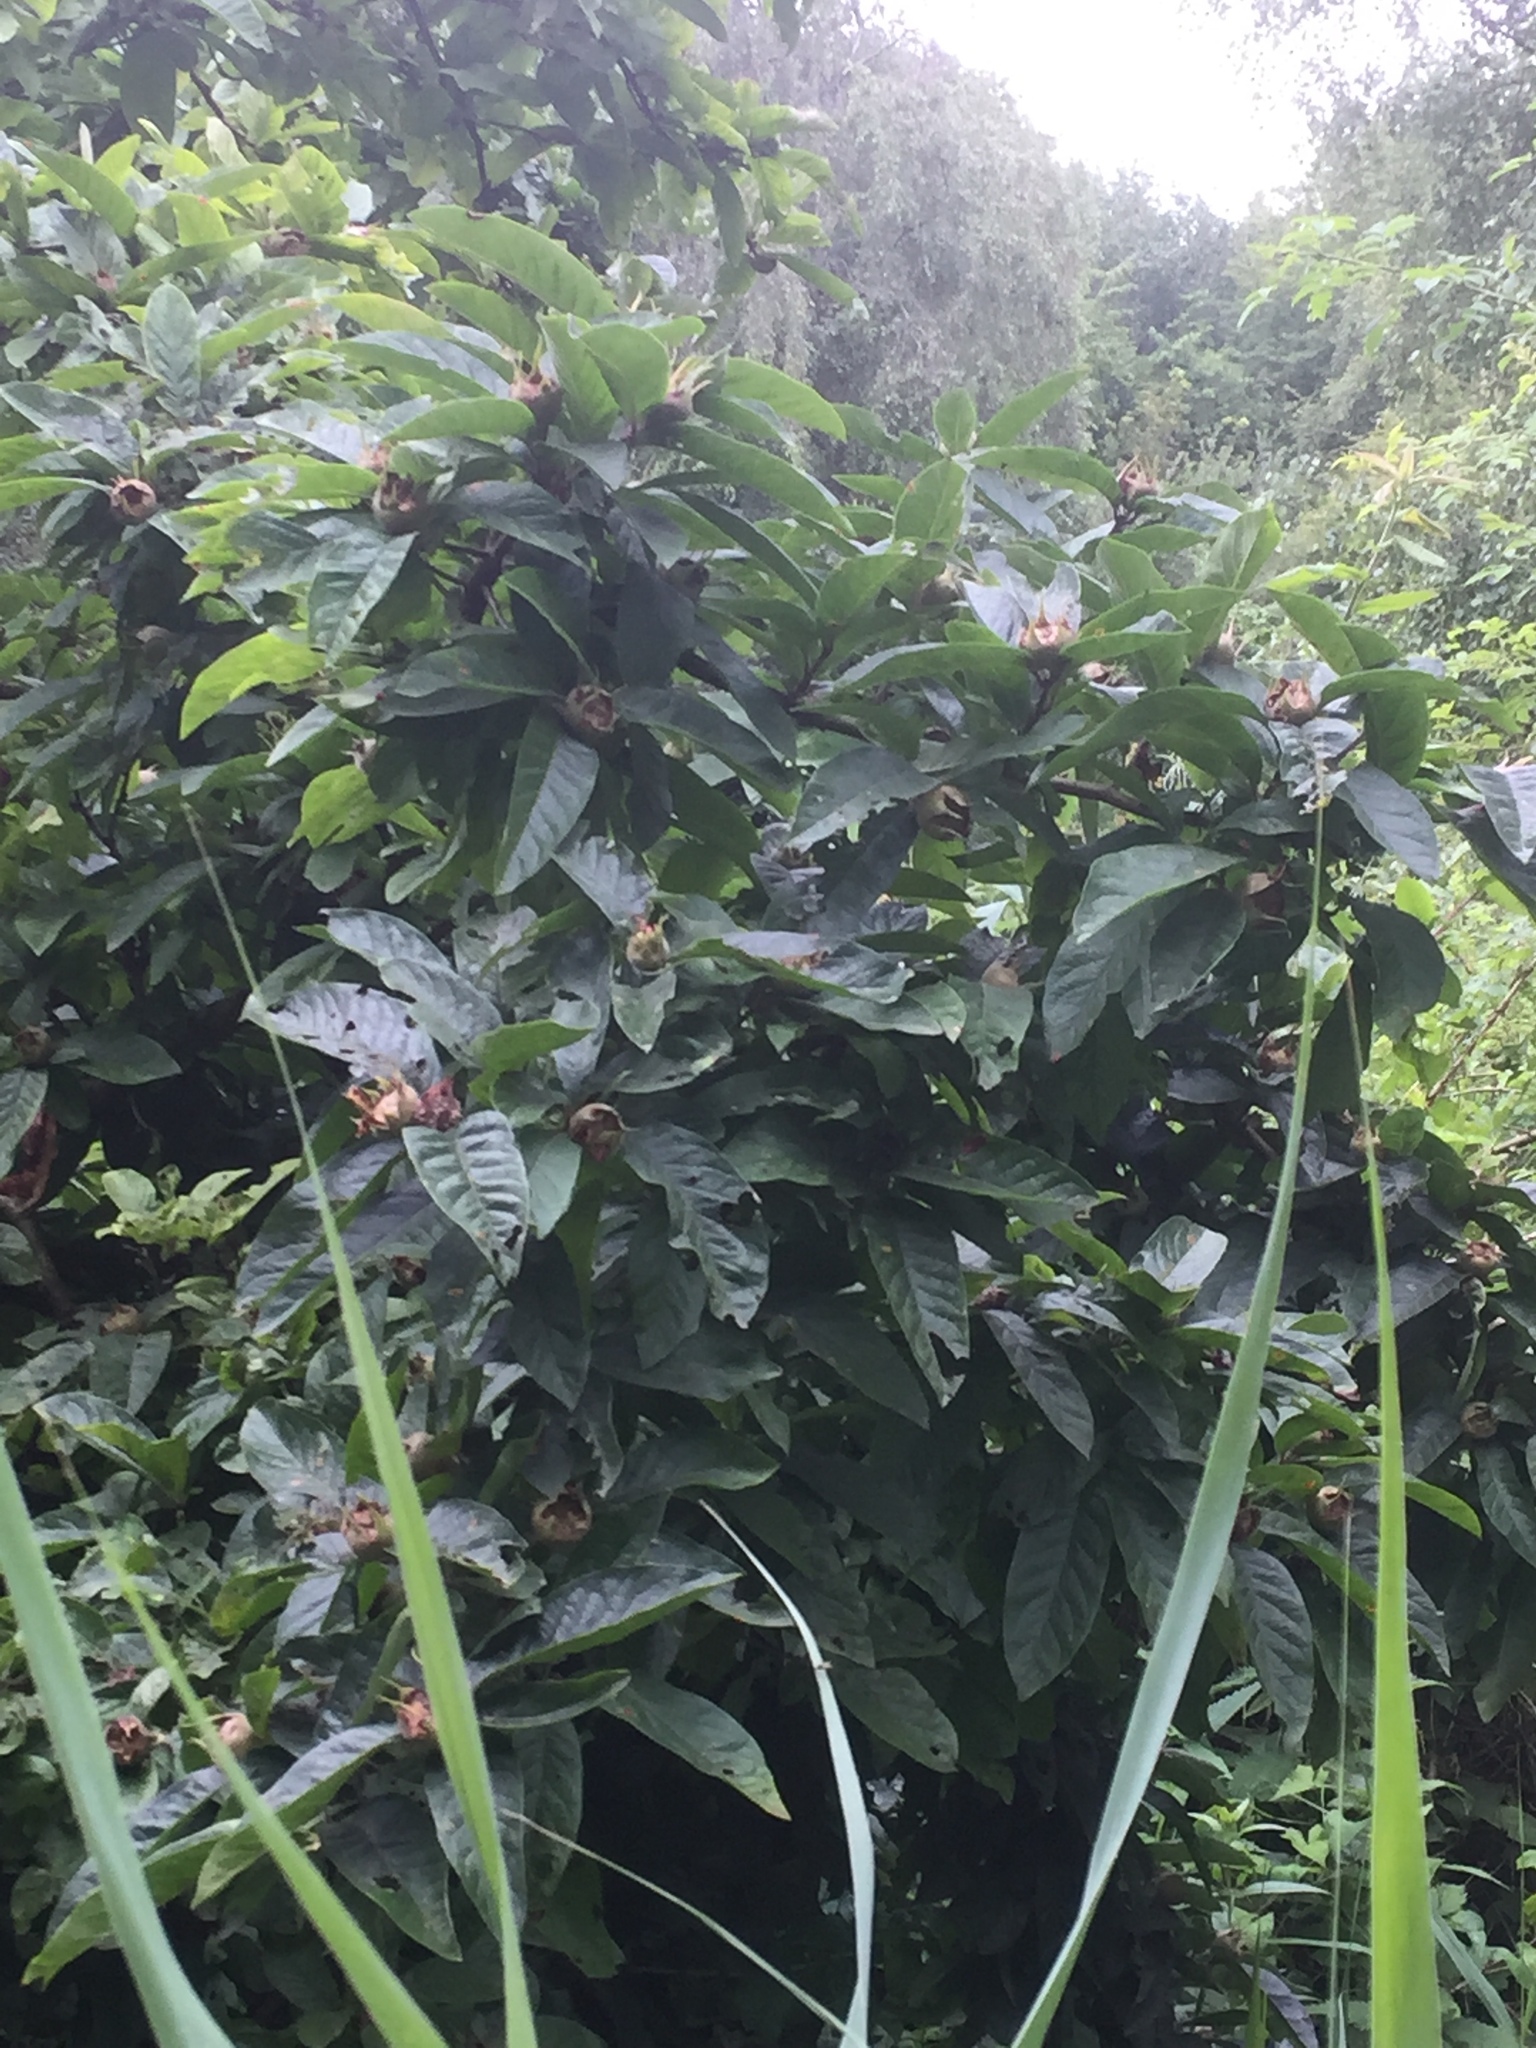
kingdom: Plantae
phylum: Tracheophyta
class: Magnoliopsida
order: Rosales
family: Rosaceae
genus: Mespilus
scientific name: Mespilus germanica
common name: Medlar
